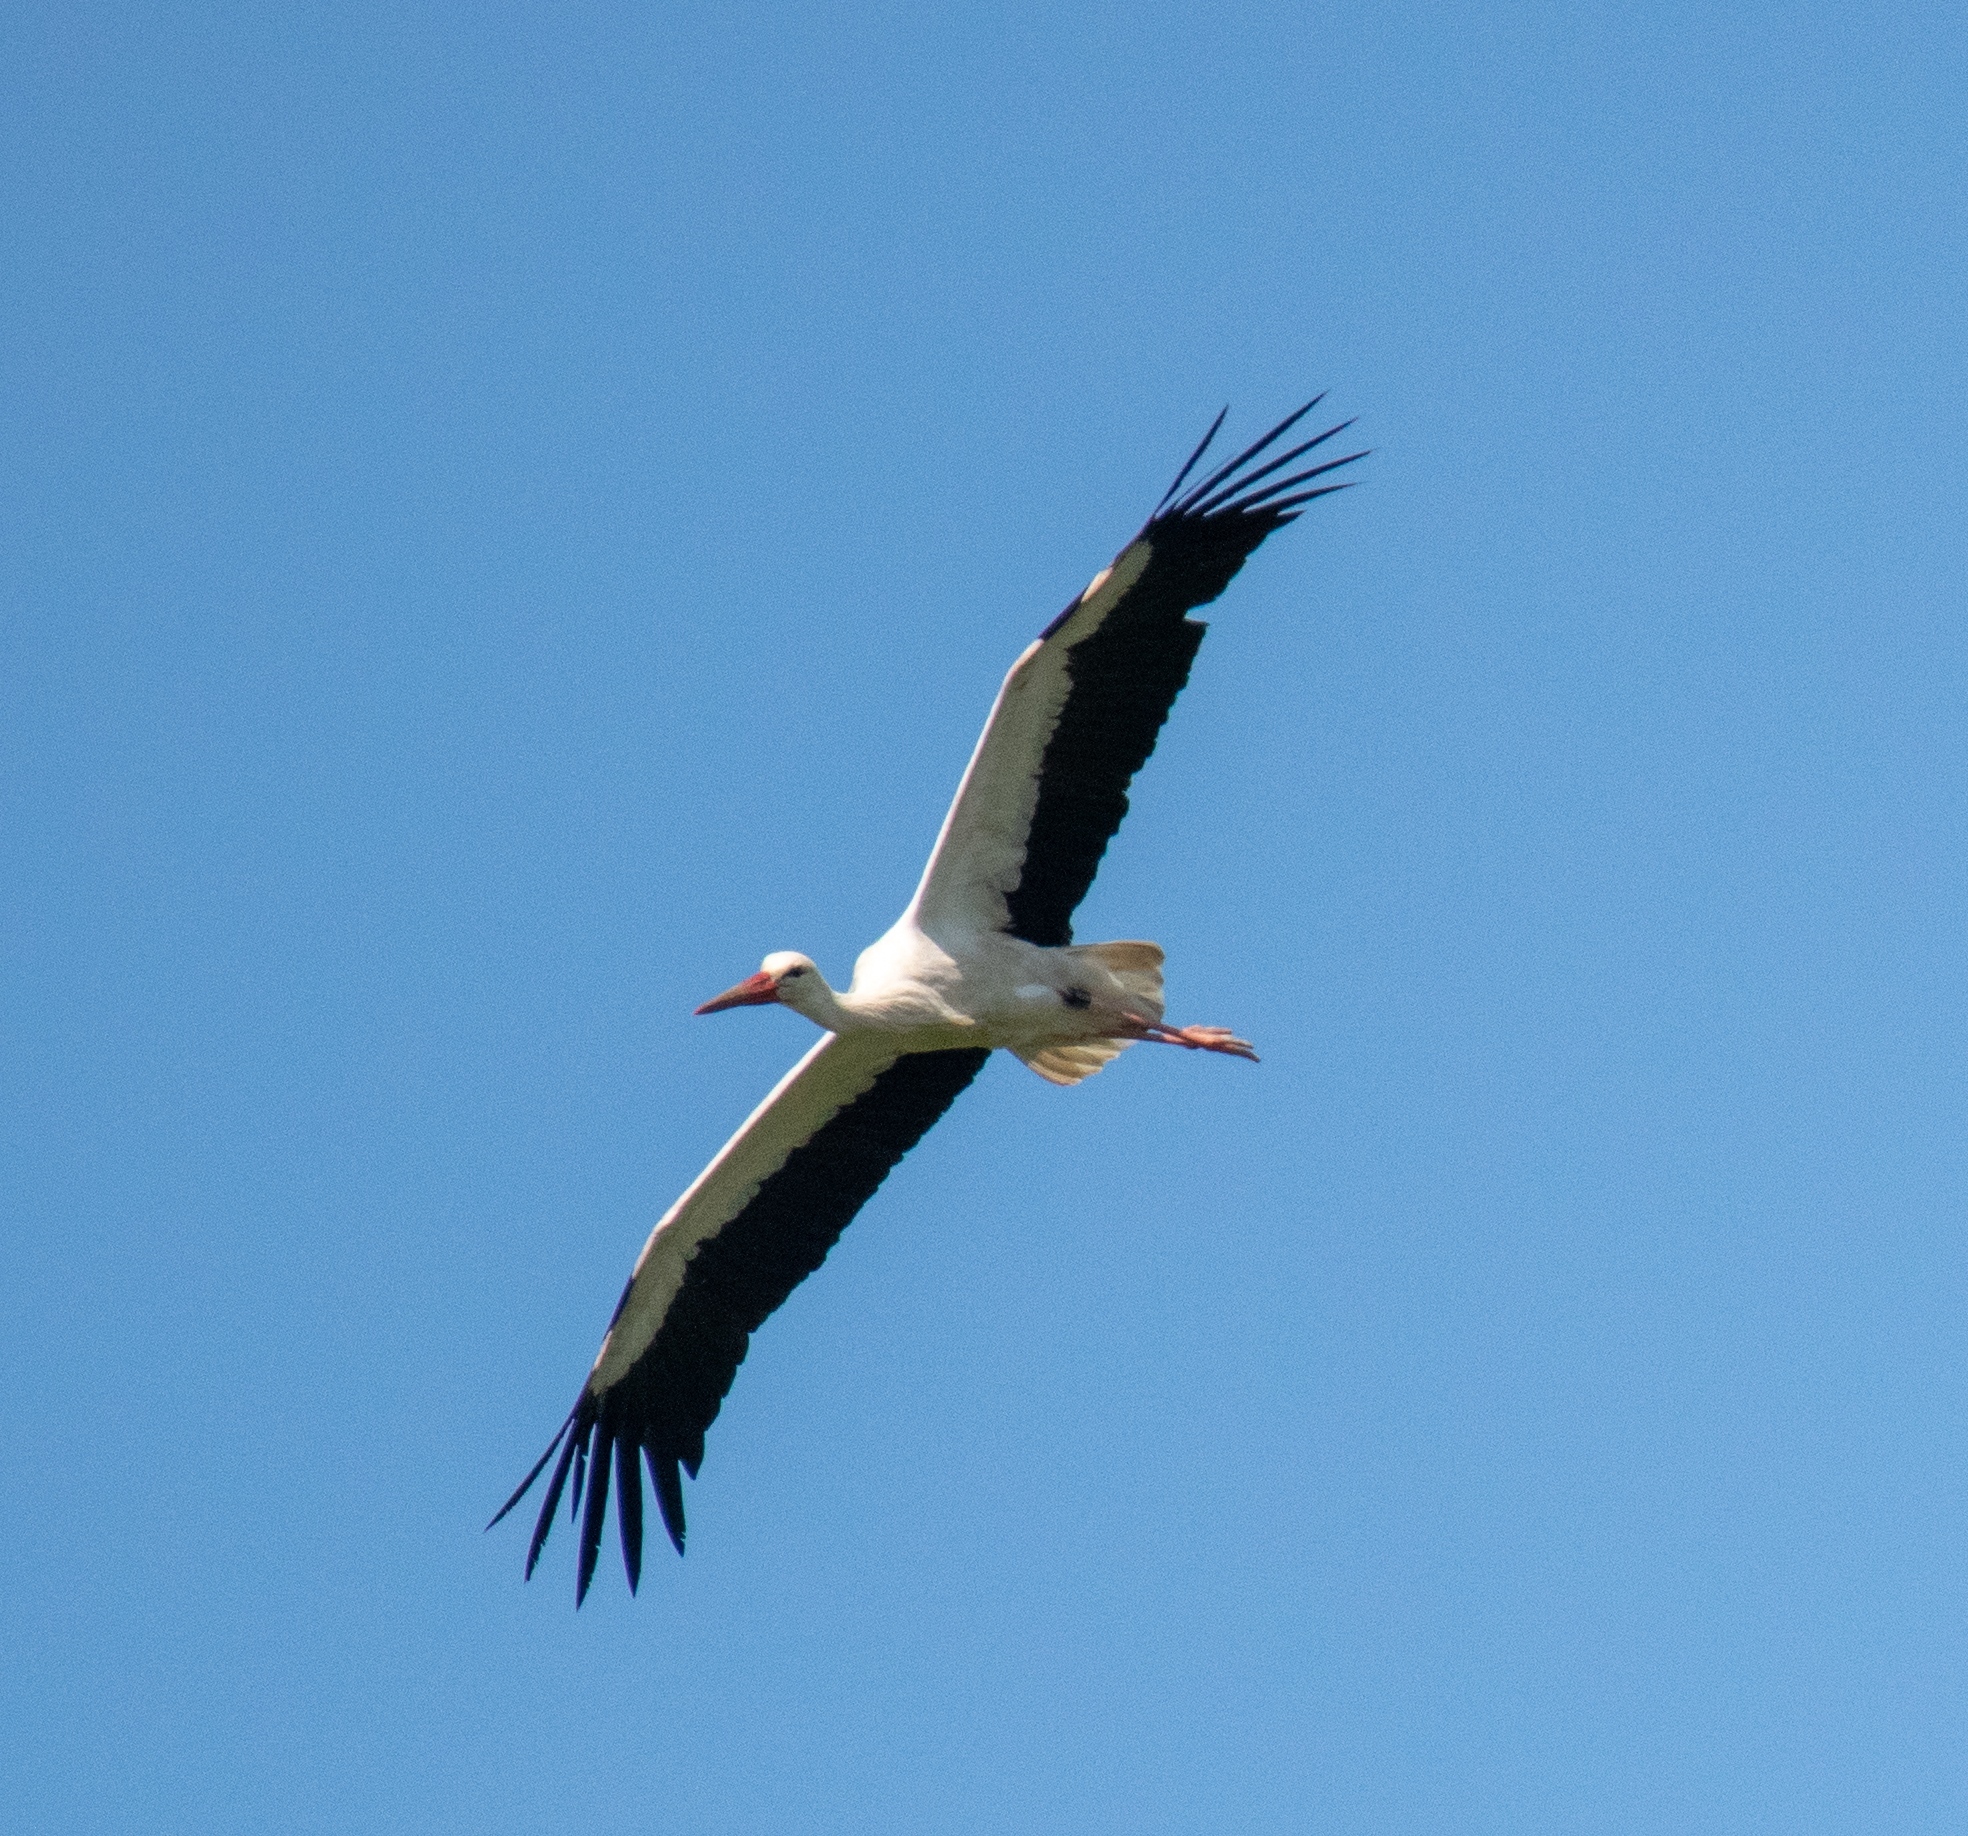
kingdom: Animalia
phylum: Chordata
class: Aves
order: Ciconiiformes
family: Ciconiidae
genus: Ciconia
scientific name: Ciconia ciconia
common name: White stork
